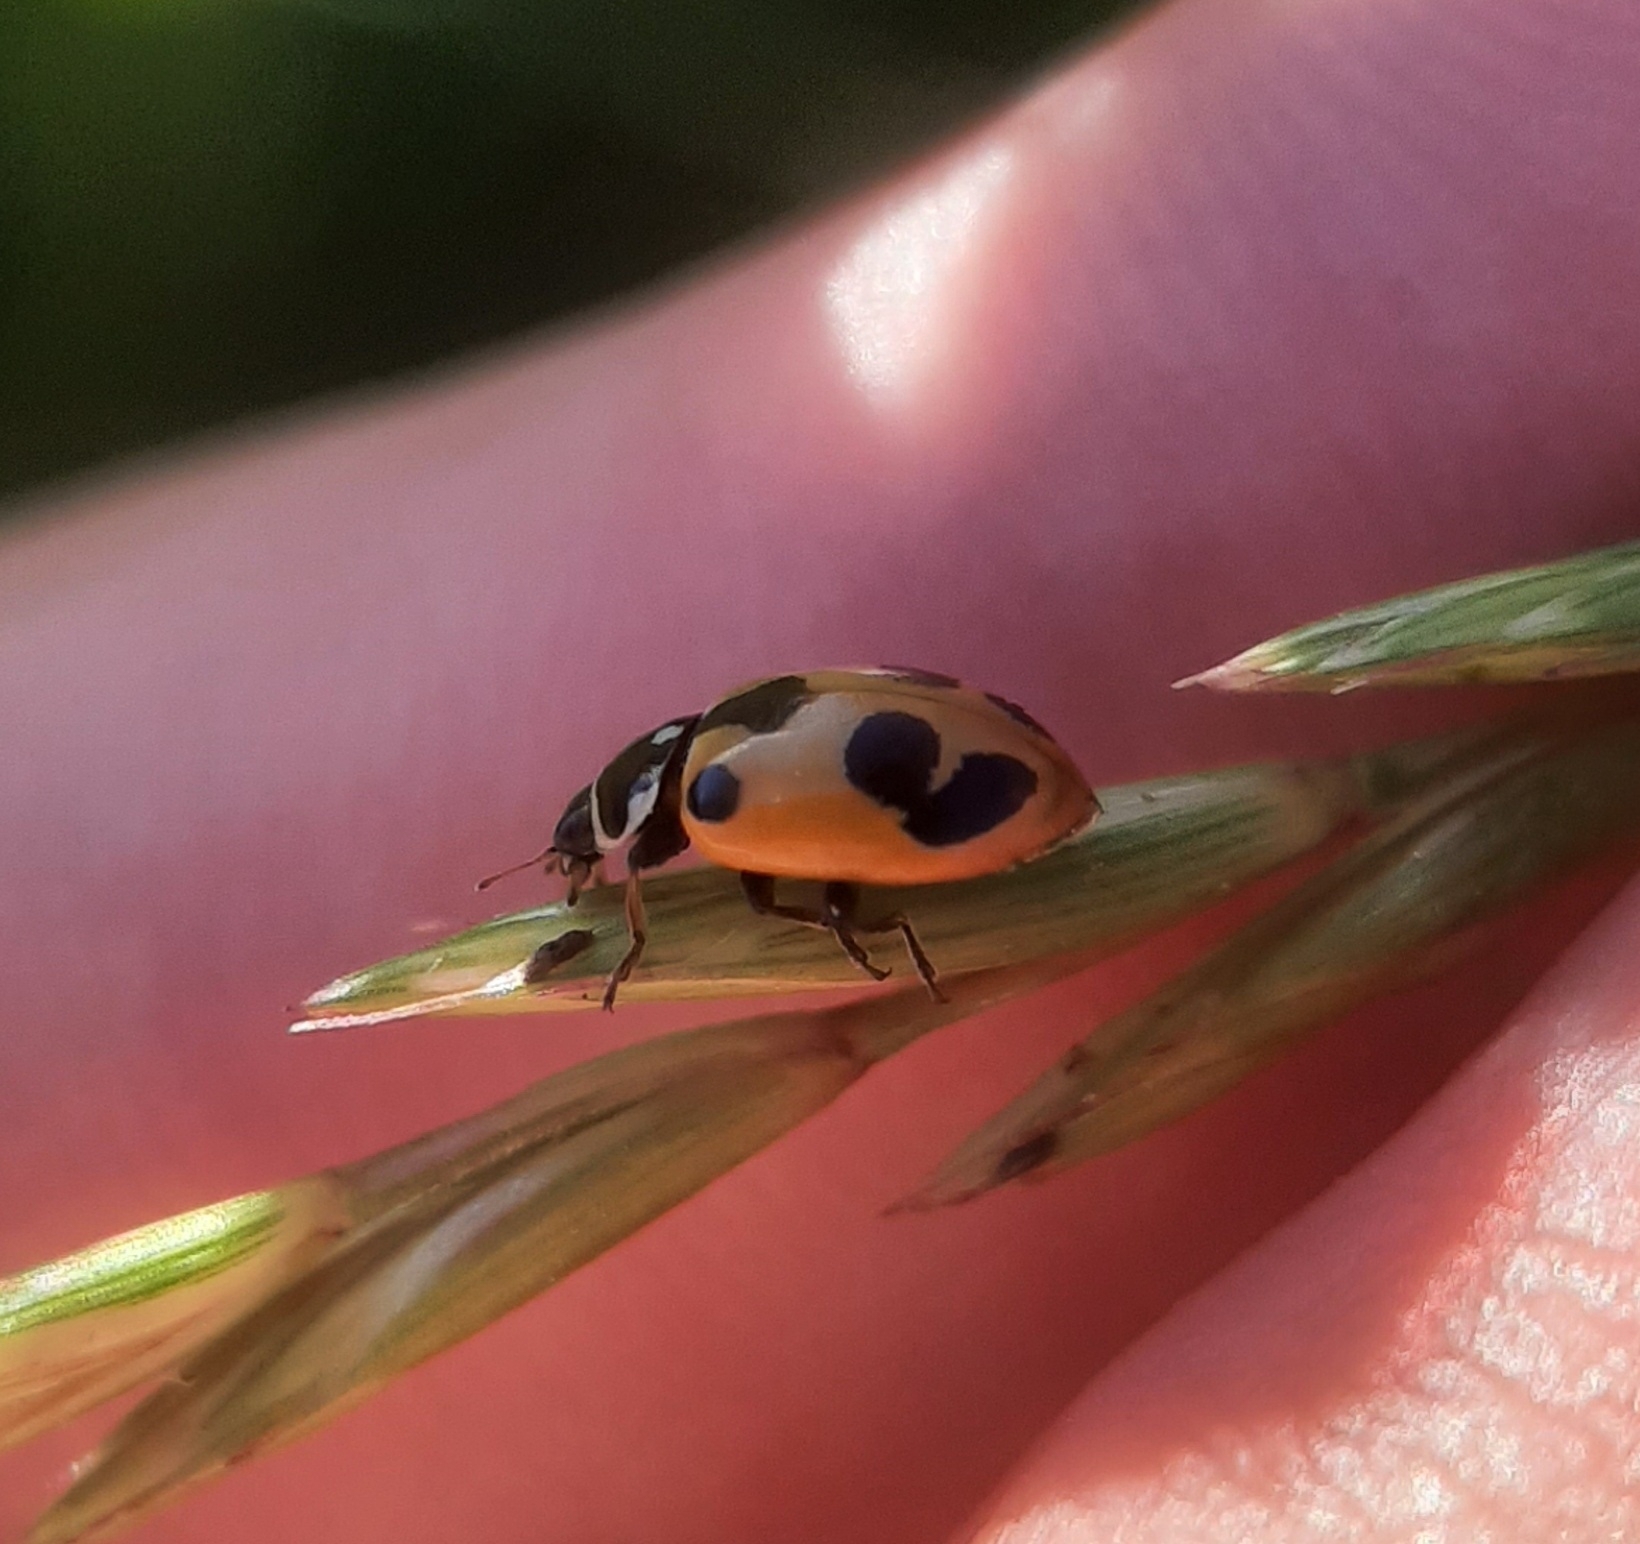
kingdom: Animalia
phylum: Arthropoda
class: Insecta
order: Coleoptera
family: Coccinellidae
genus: Hippodamia
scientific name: Hippodamia parenthesis
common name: Parenthesis lady beetle
